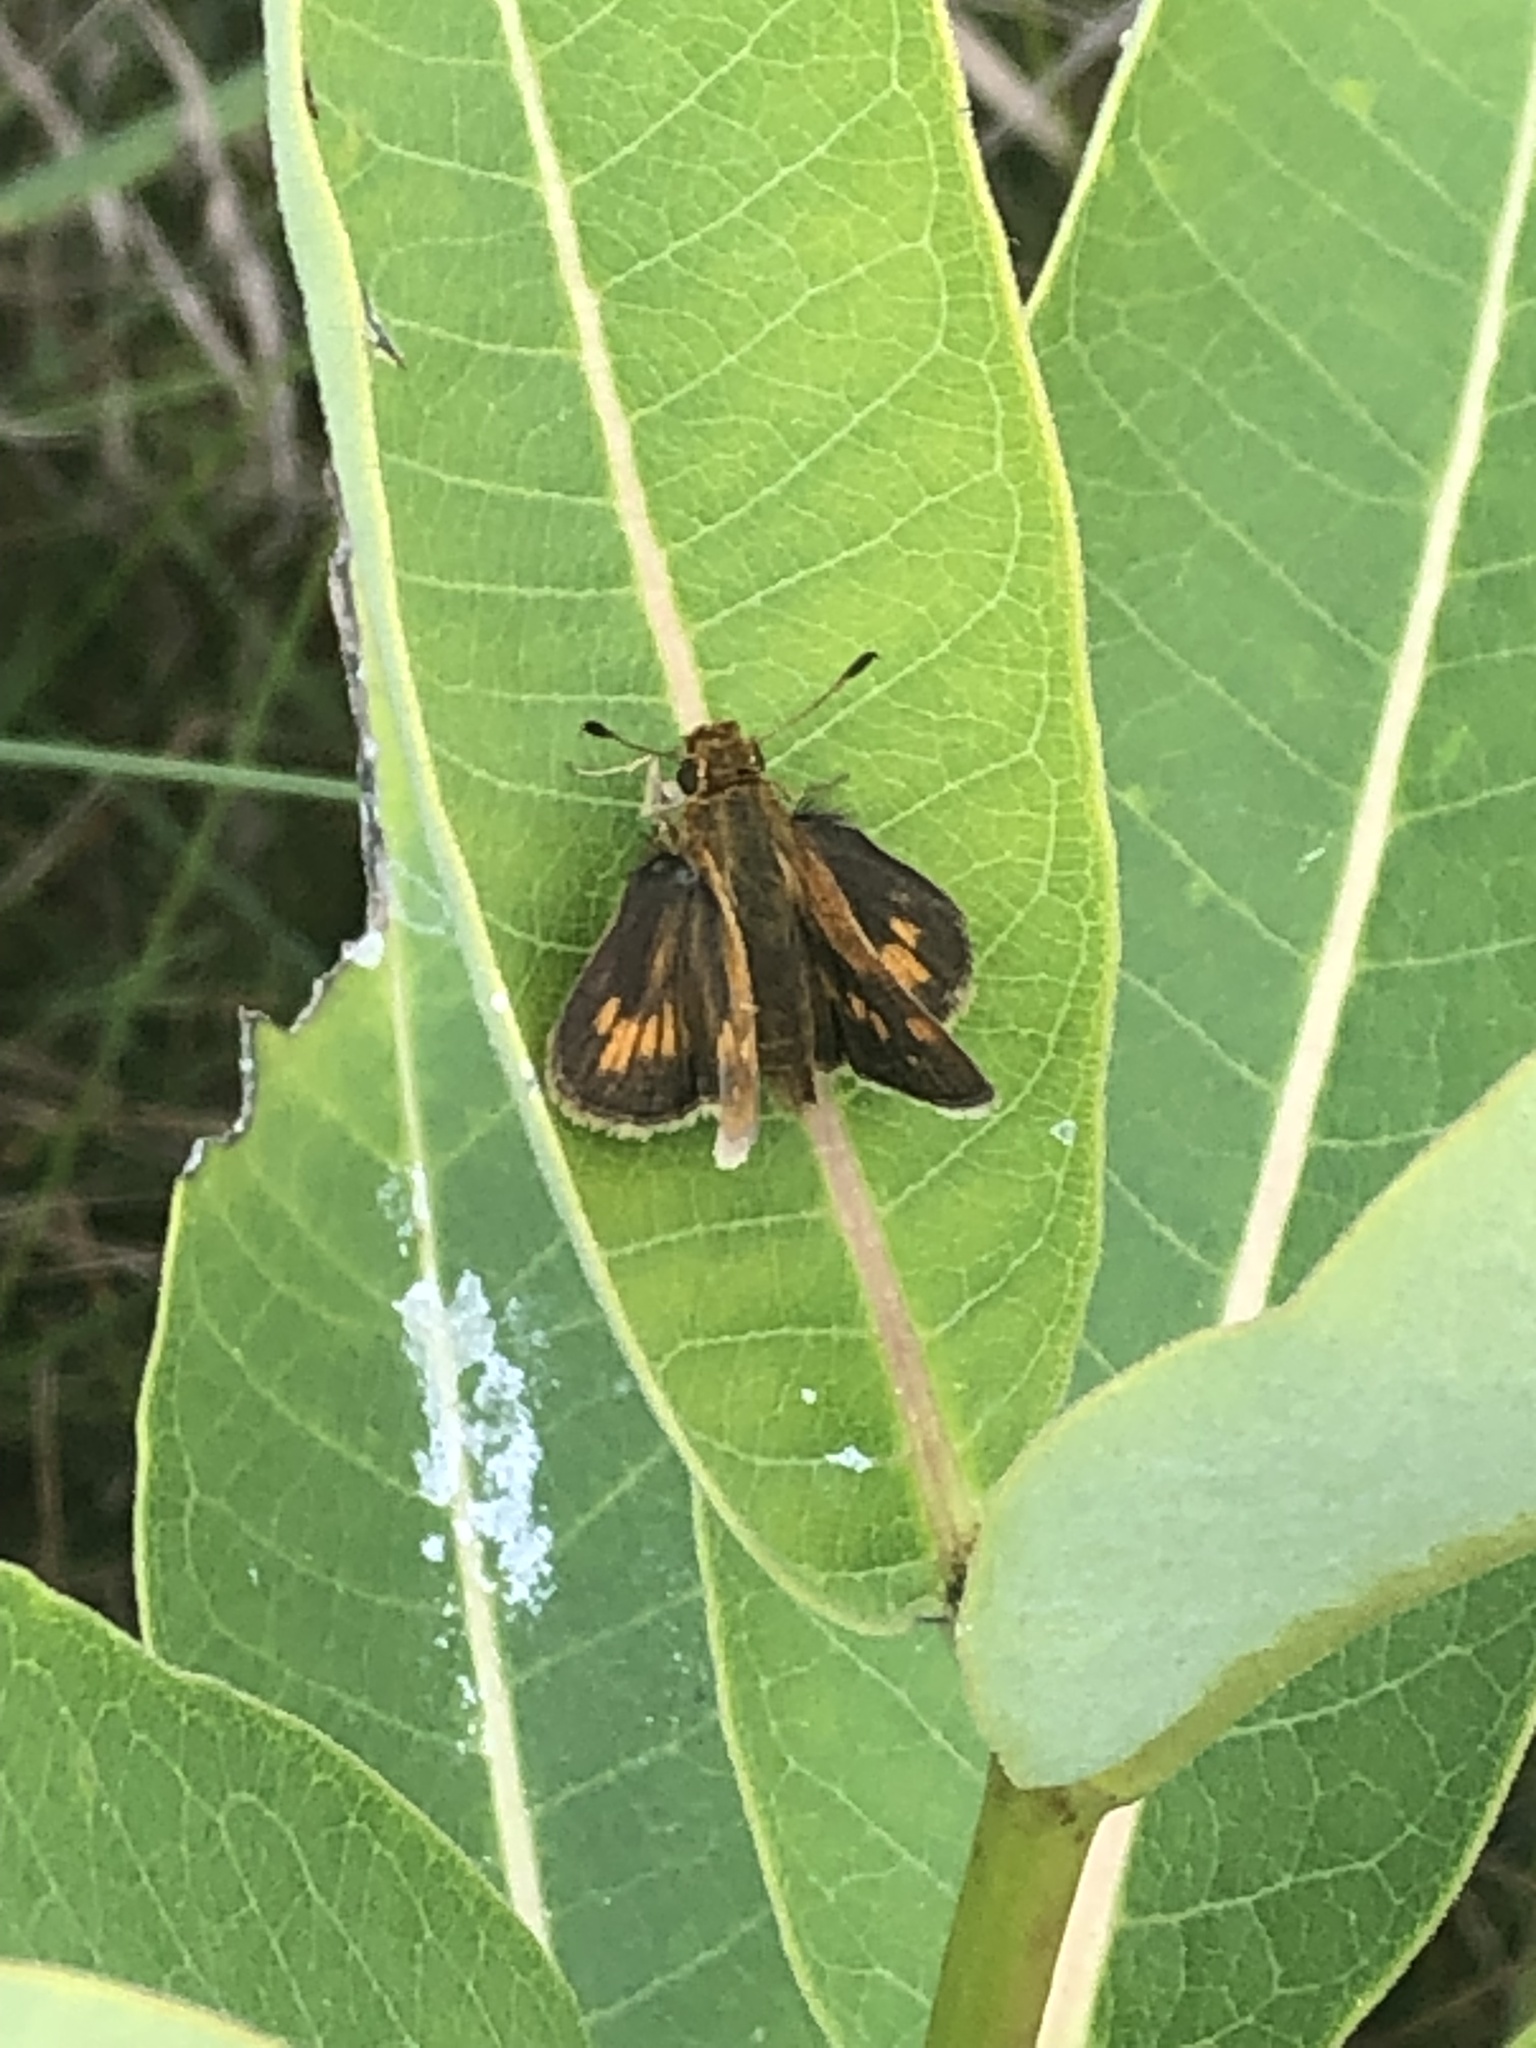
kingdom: Animalia
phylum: Arthropoda
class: Insecta
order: Lepidoptera
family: Hesperiidae
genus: Polites
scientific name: Polites coras
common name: Peck's skipper
